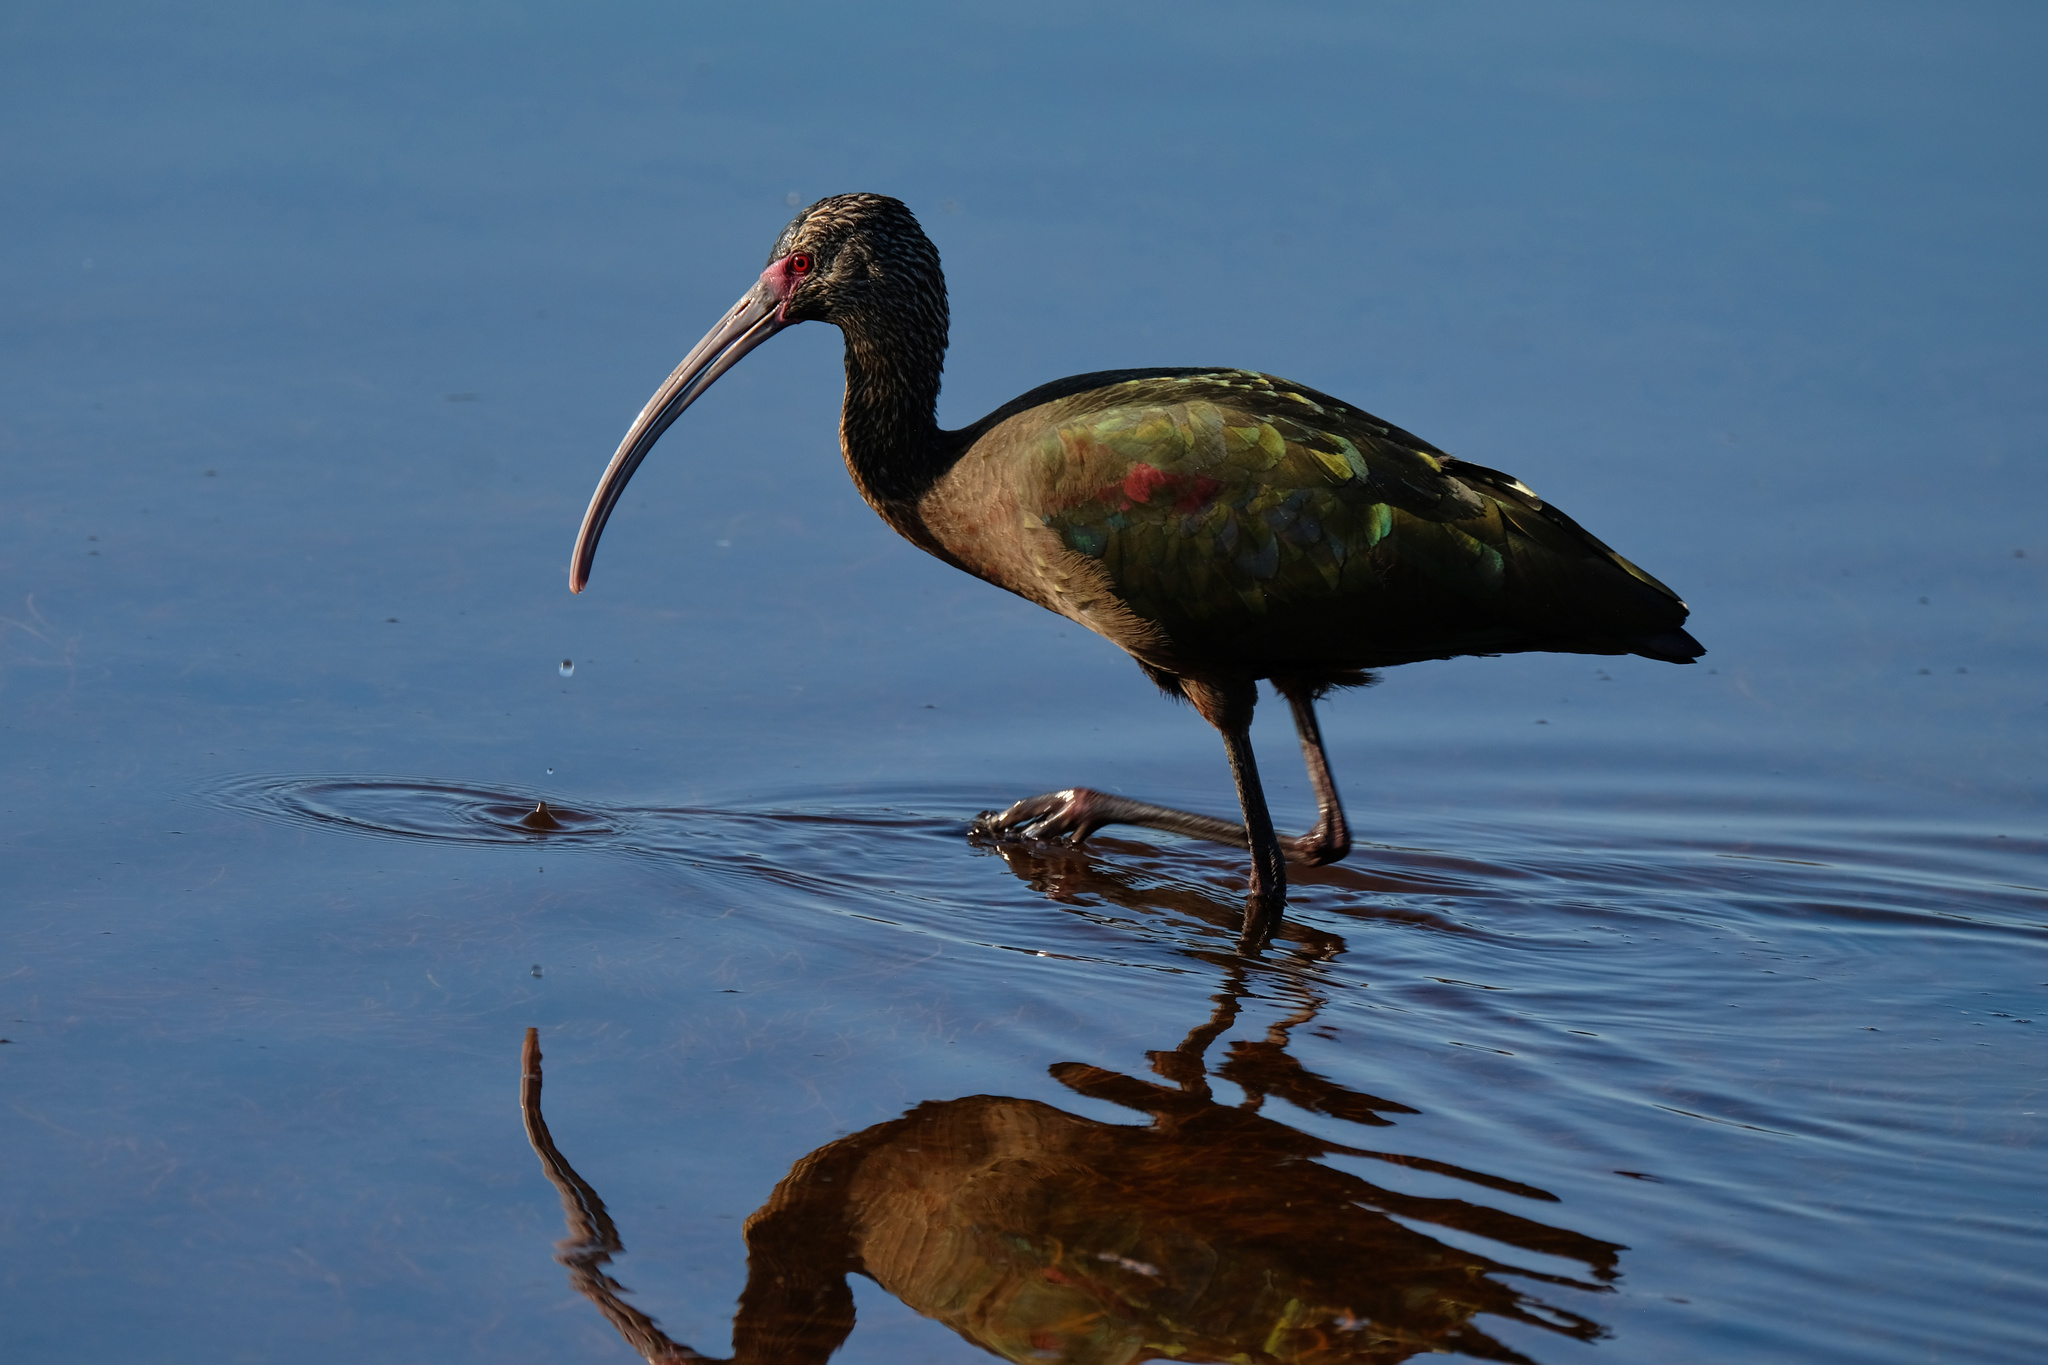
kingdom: Animalia
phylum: Chordata
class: Aves
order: Pelecaniformes
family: Threskiornithidae
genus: Plegadis
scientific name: Plegadis chihi
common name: White-faced ibis
